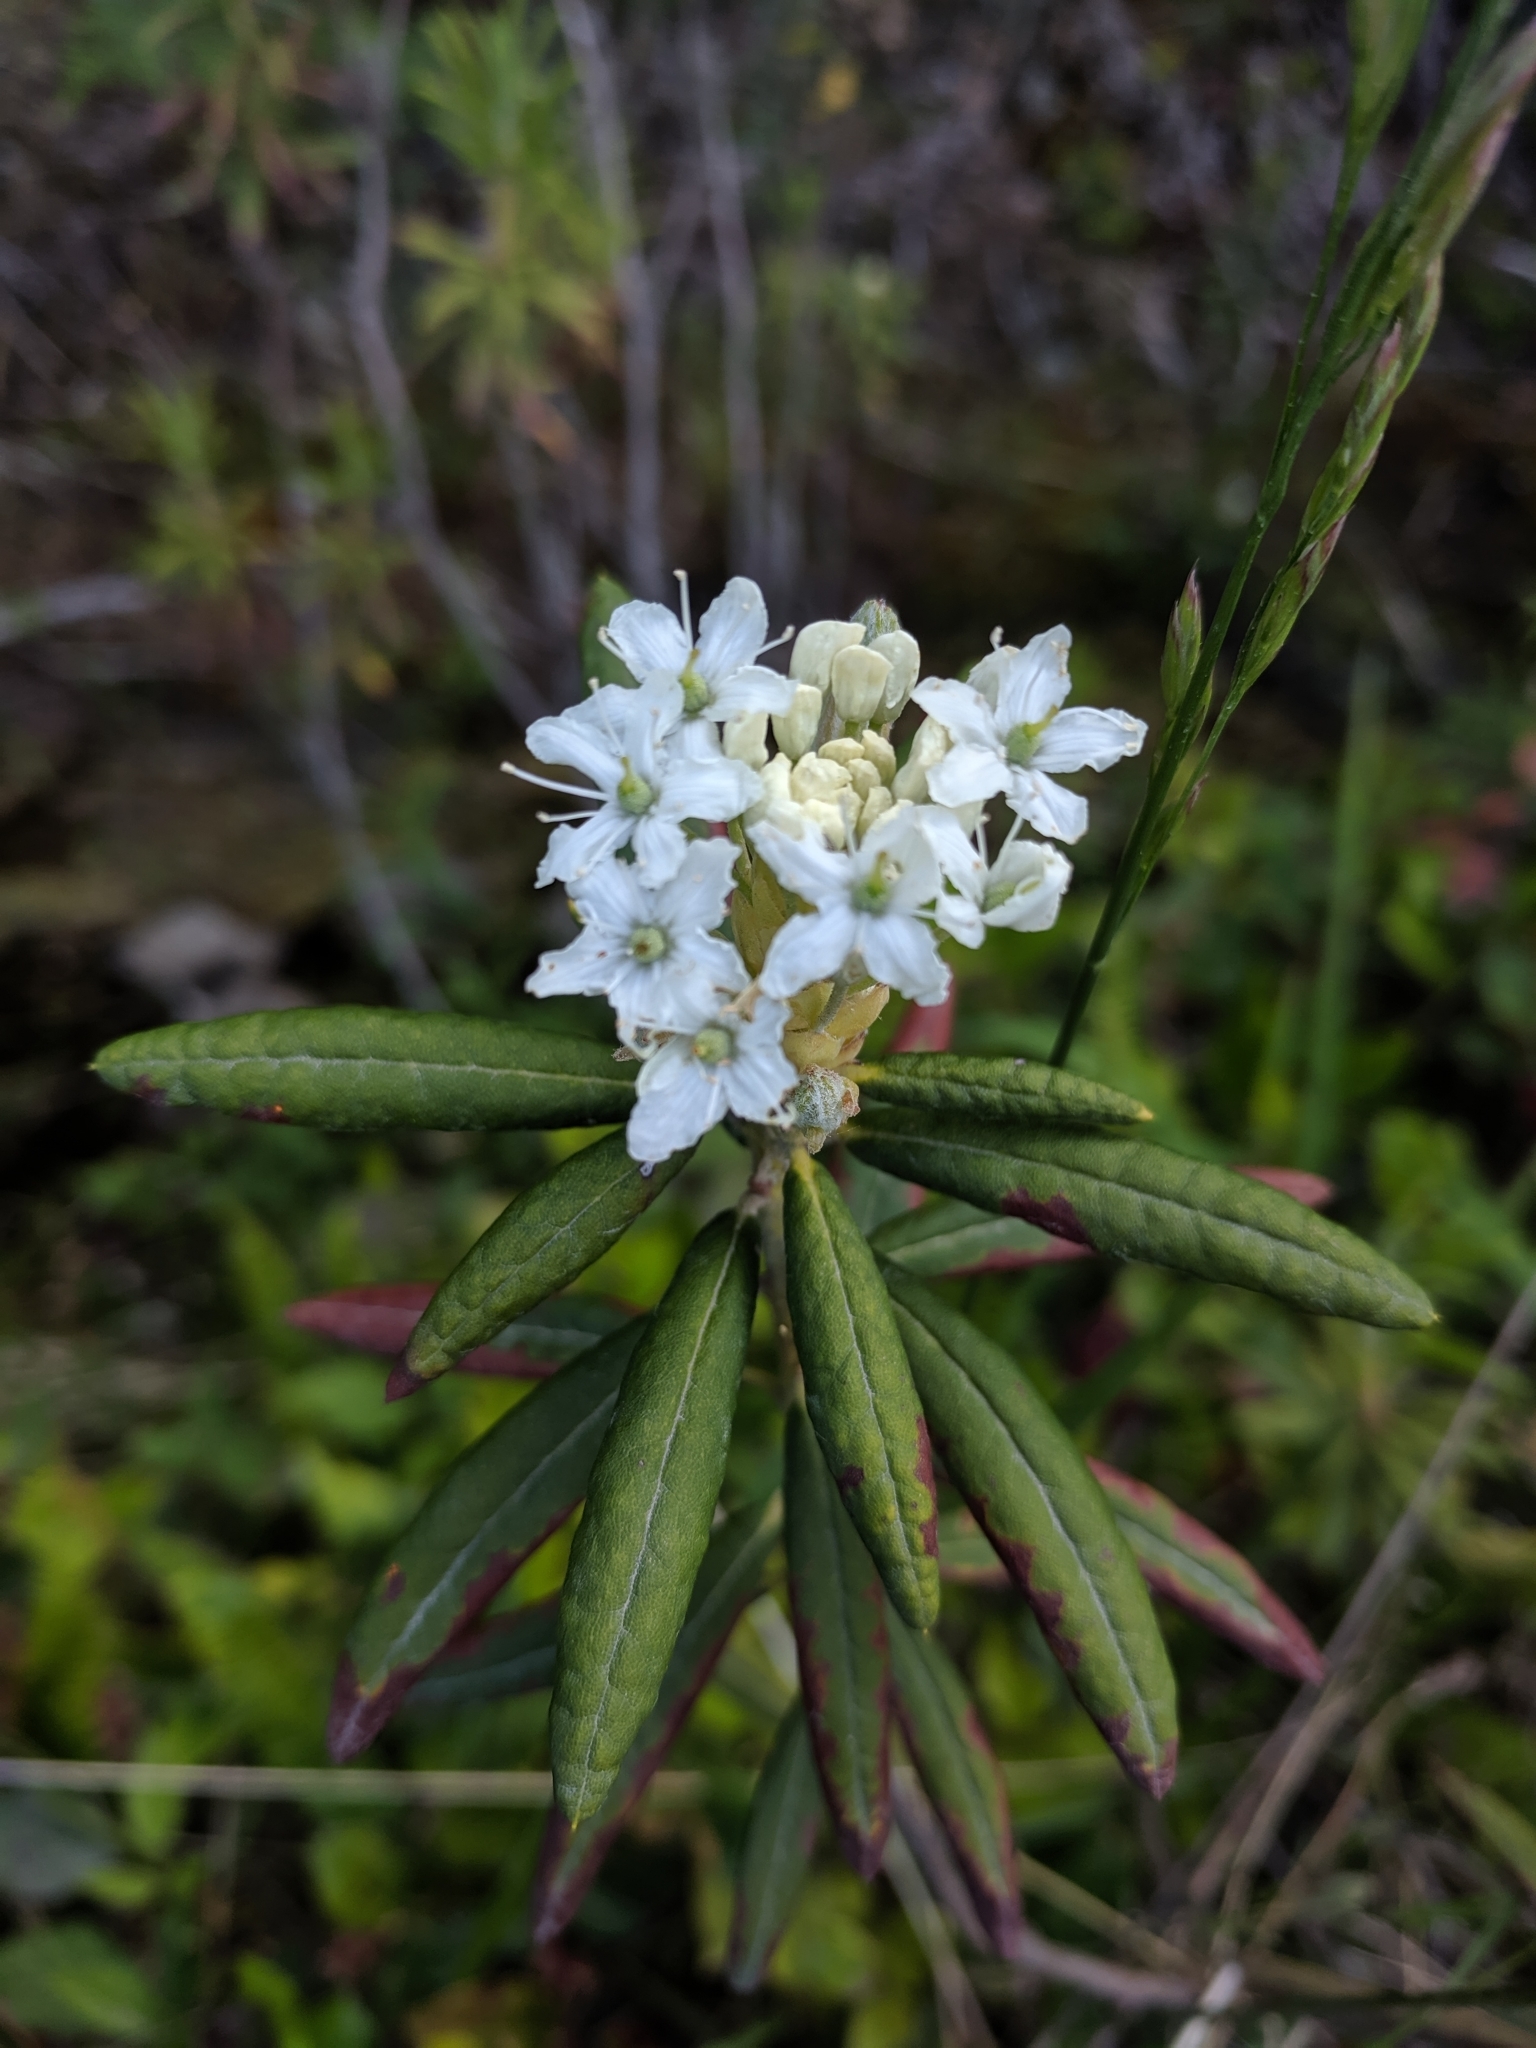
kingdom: Plantae
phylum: Tracheophyta
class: Magnoliopsida
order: Ericales
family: Ericaceae
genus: Rhododendron
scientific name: Rhododendron groenlandicum
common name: Bog labrador tea
